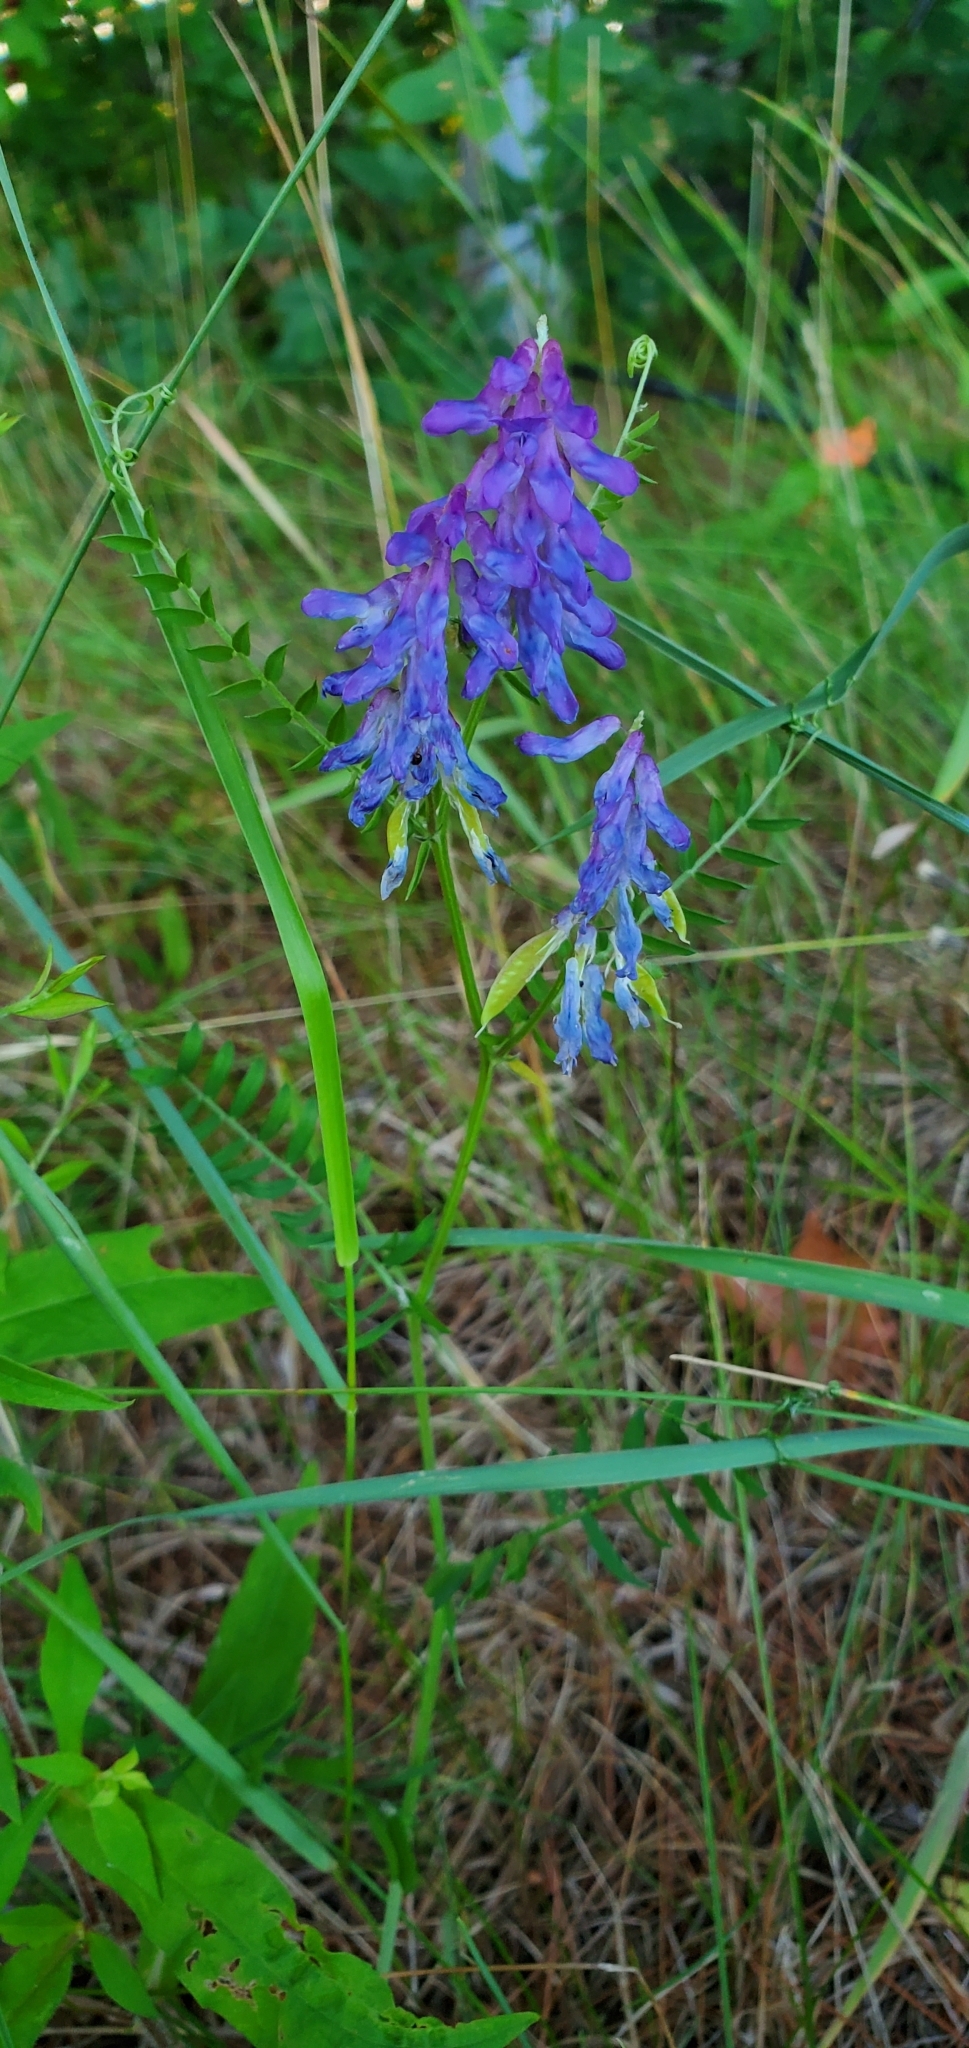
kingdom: Plantae
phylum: Tracheophyta
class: Magnoliopsida
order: Fabales
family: Fabaceae
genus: Vicia
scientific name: Vicia cracca
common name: Bird vetch
